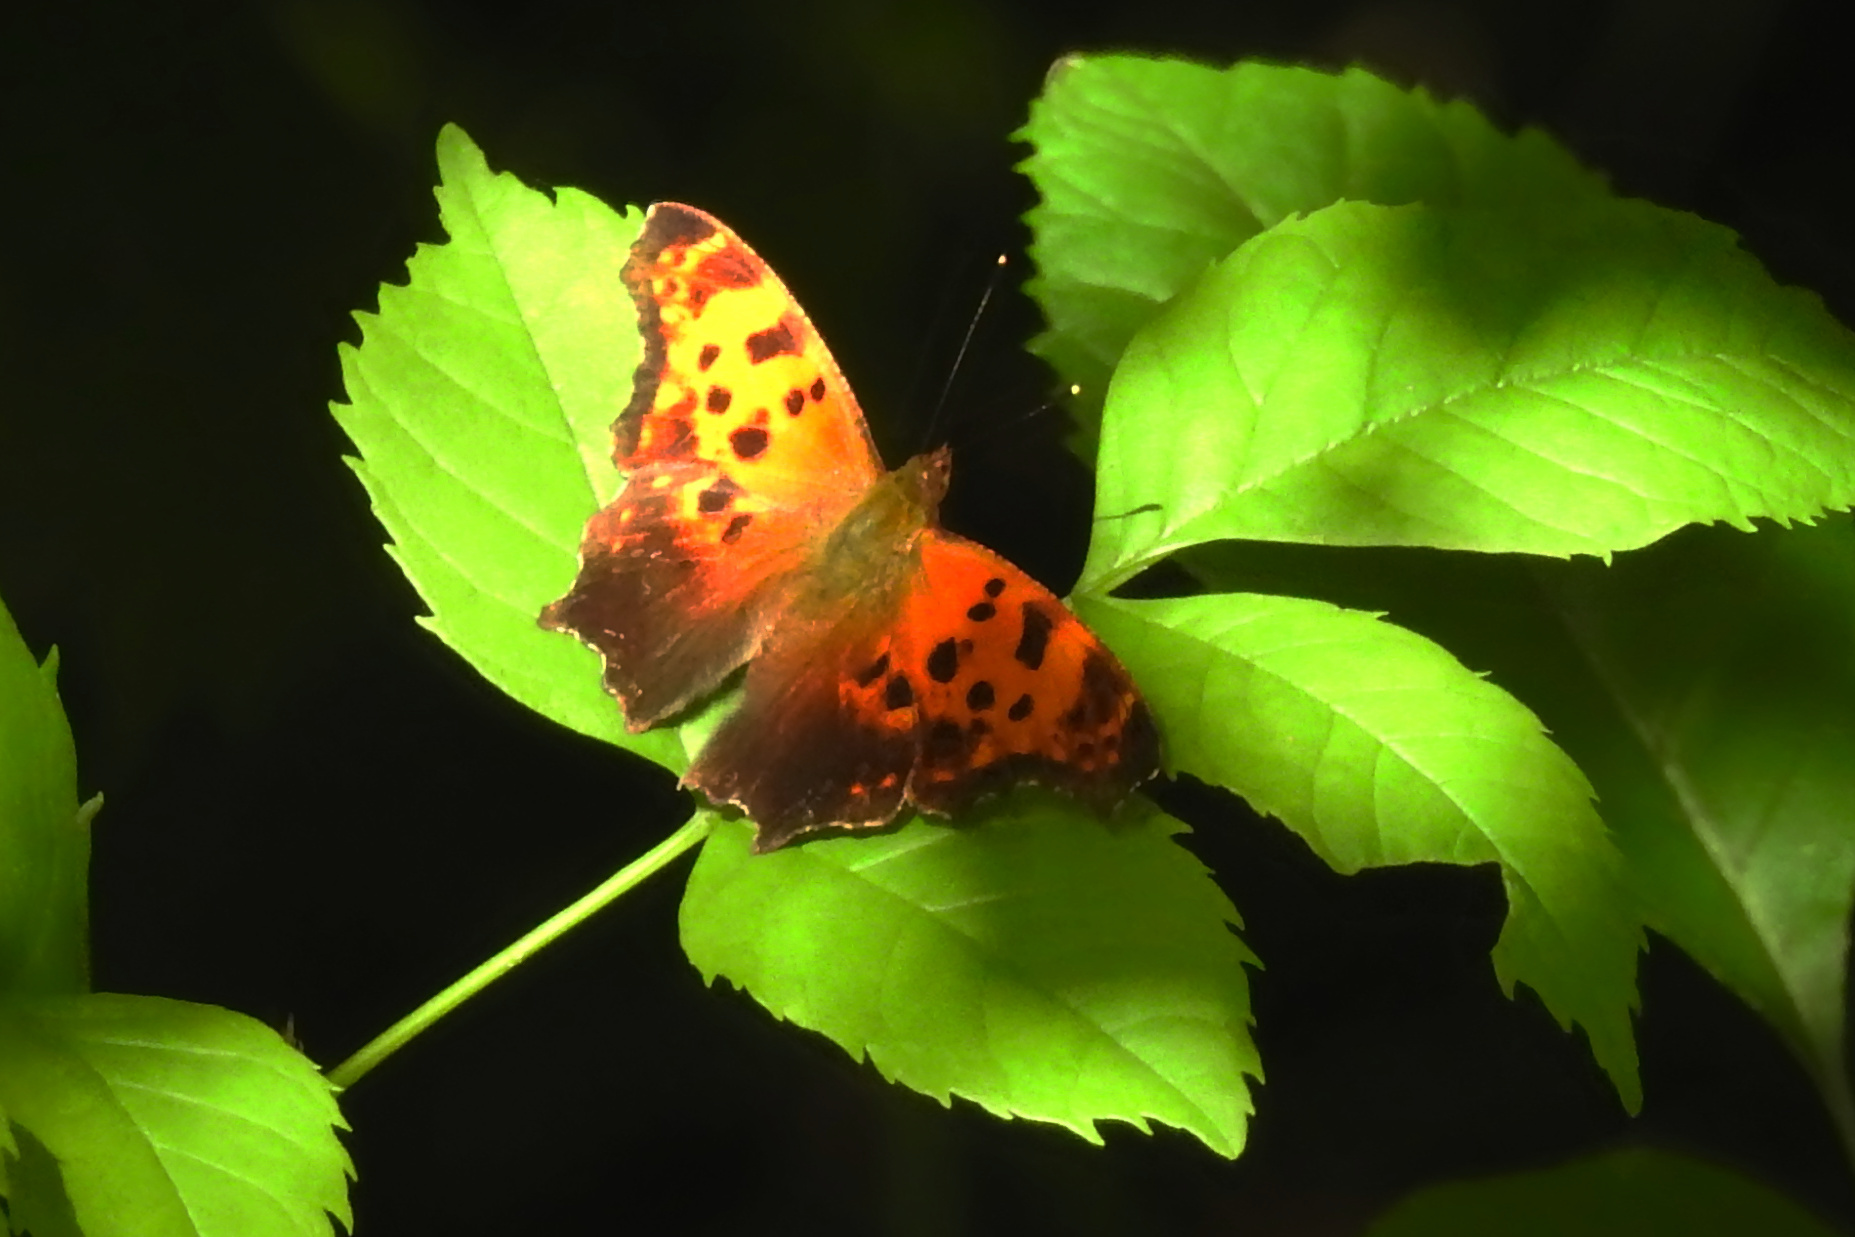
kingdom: Animalia
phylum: Arthropoda
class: Insecta
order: Lepidoptera
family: Nymphalidae
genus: Polygonia
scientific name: Polygonia comma
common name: Eastern comma
